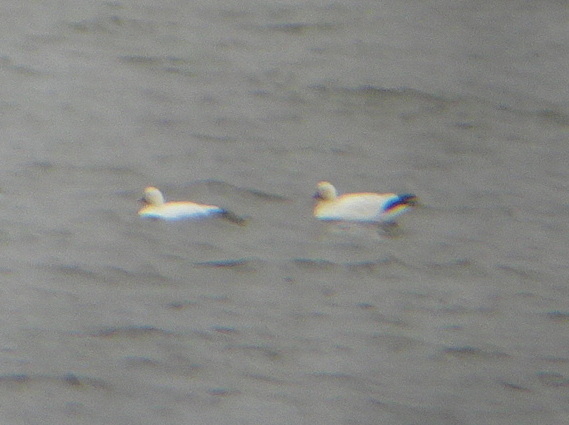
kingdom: Animalia
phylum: Chordata
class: Aves
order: Anseriformes
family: Anatidae
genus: Anser
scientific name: Anser rossii
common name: Ross's goose
